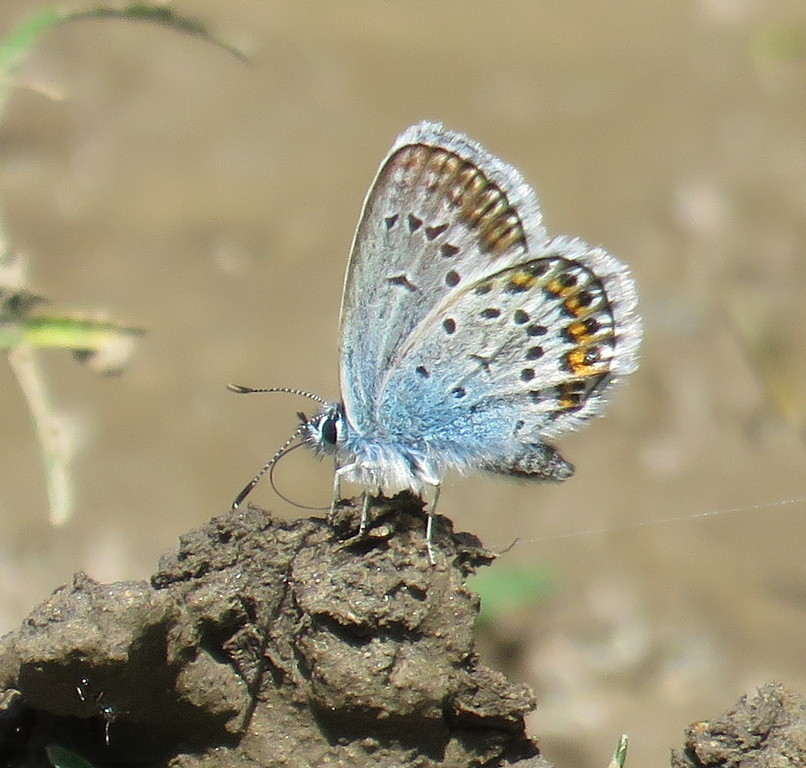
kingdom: Animalia
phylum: Arthropoda
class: Insecta
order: Lepidoptera
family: Lycaenidae
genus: Plebejus
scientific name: Plebejus argus
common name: Silver-studded blue
